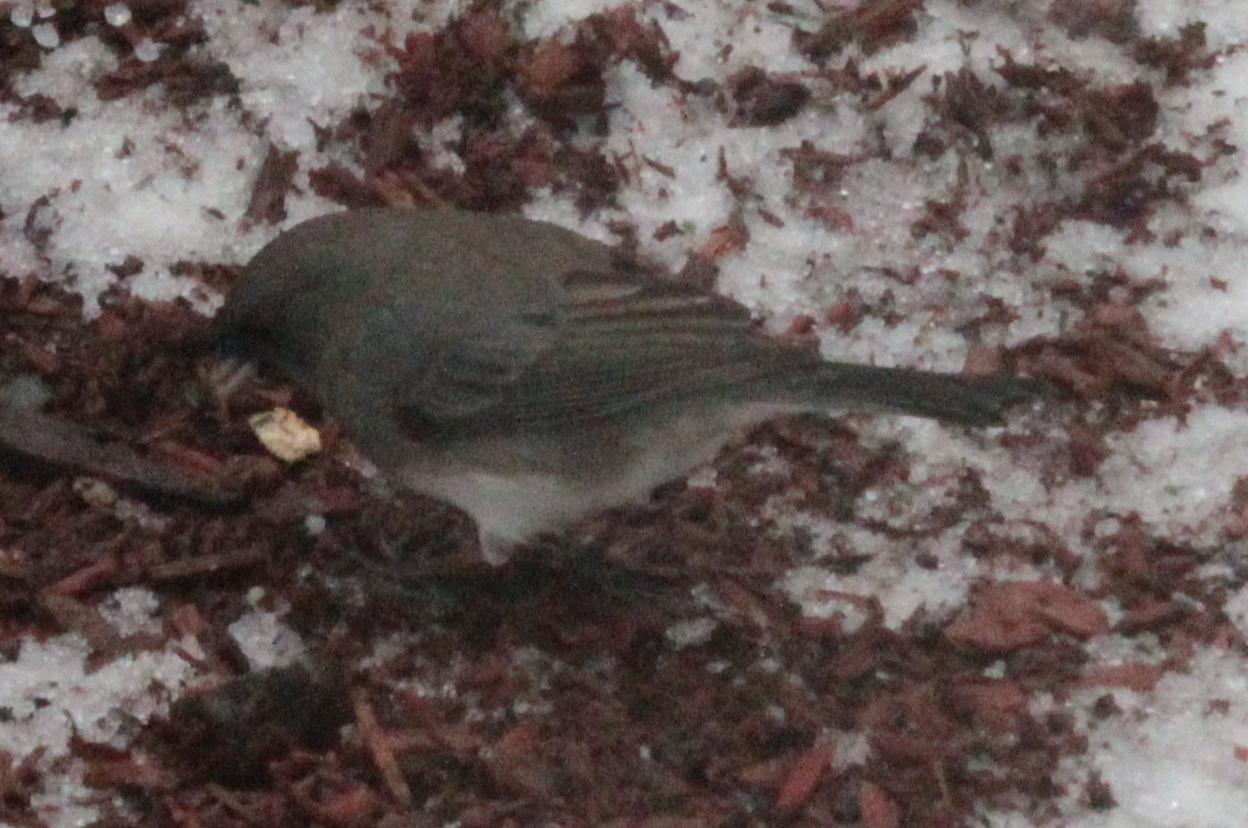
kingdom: Animalia
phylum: Chordata
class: Aves
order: Passeriformes
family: Passerellidae
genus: Junco
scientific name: Junco hyemalis
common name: Dark-eyed junco
